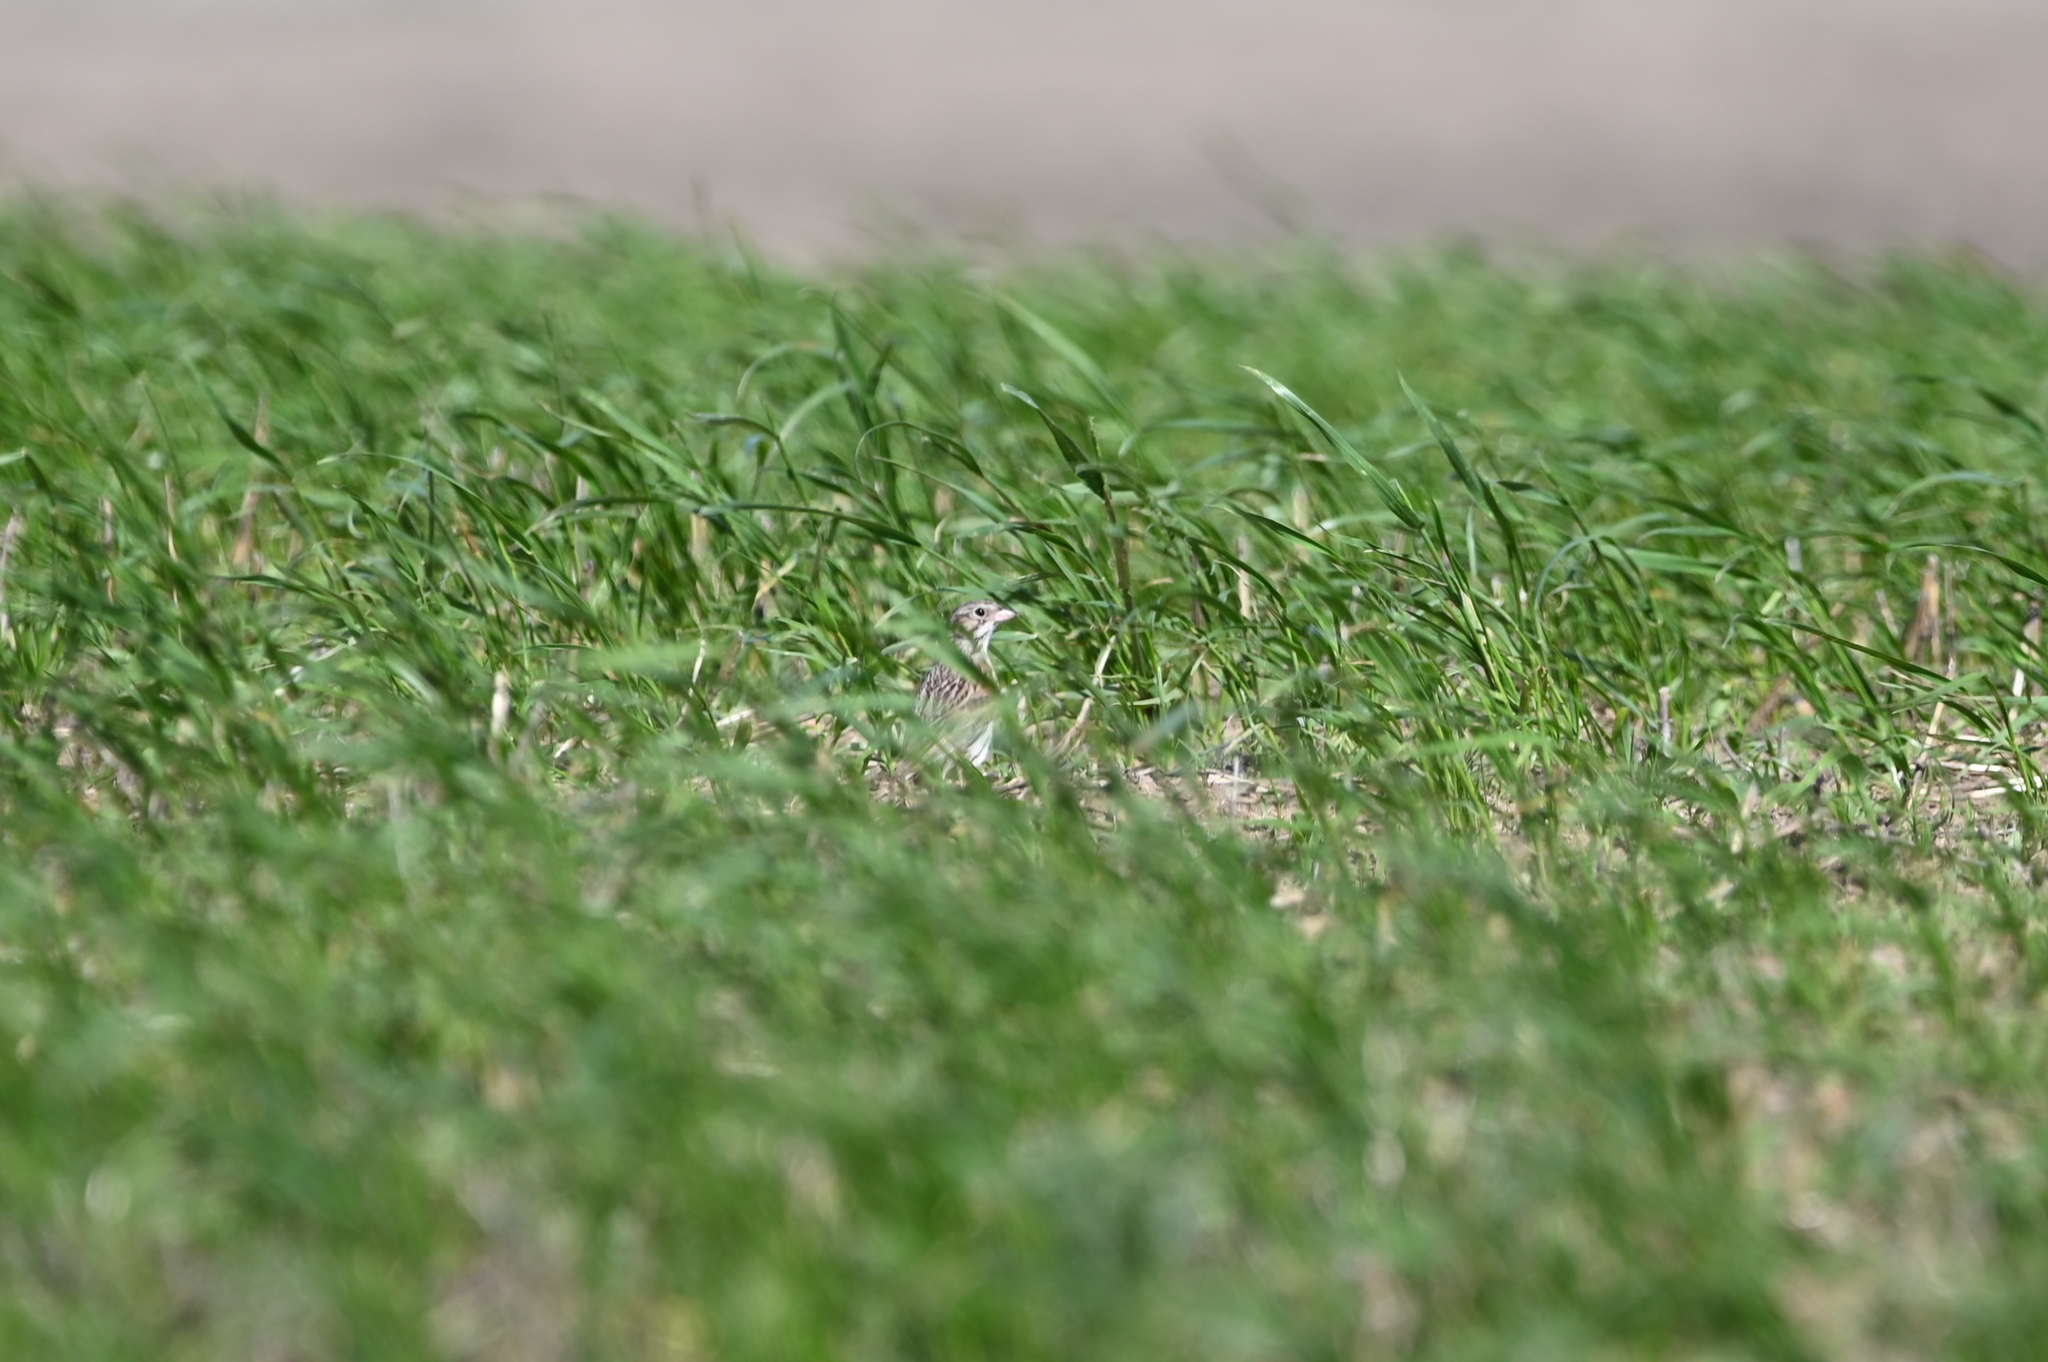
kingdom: Animalia
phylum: Chordata
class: Aves
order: Passeriformes
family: Passerellidae
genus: Pooecetes
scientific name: Pooecetes gramineus
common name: Vesper sparrow
